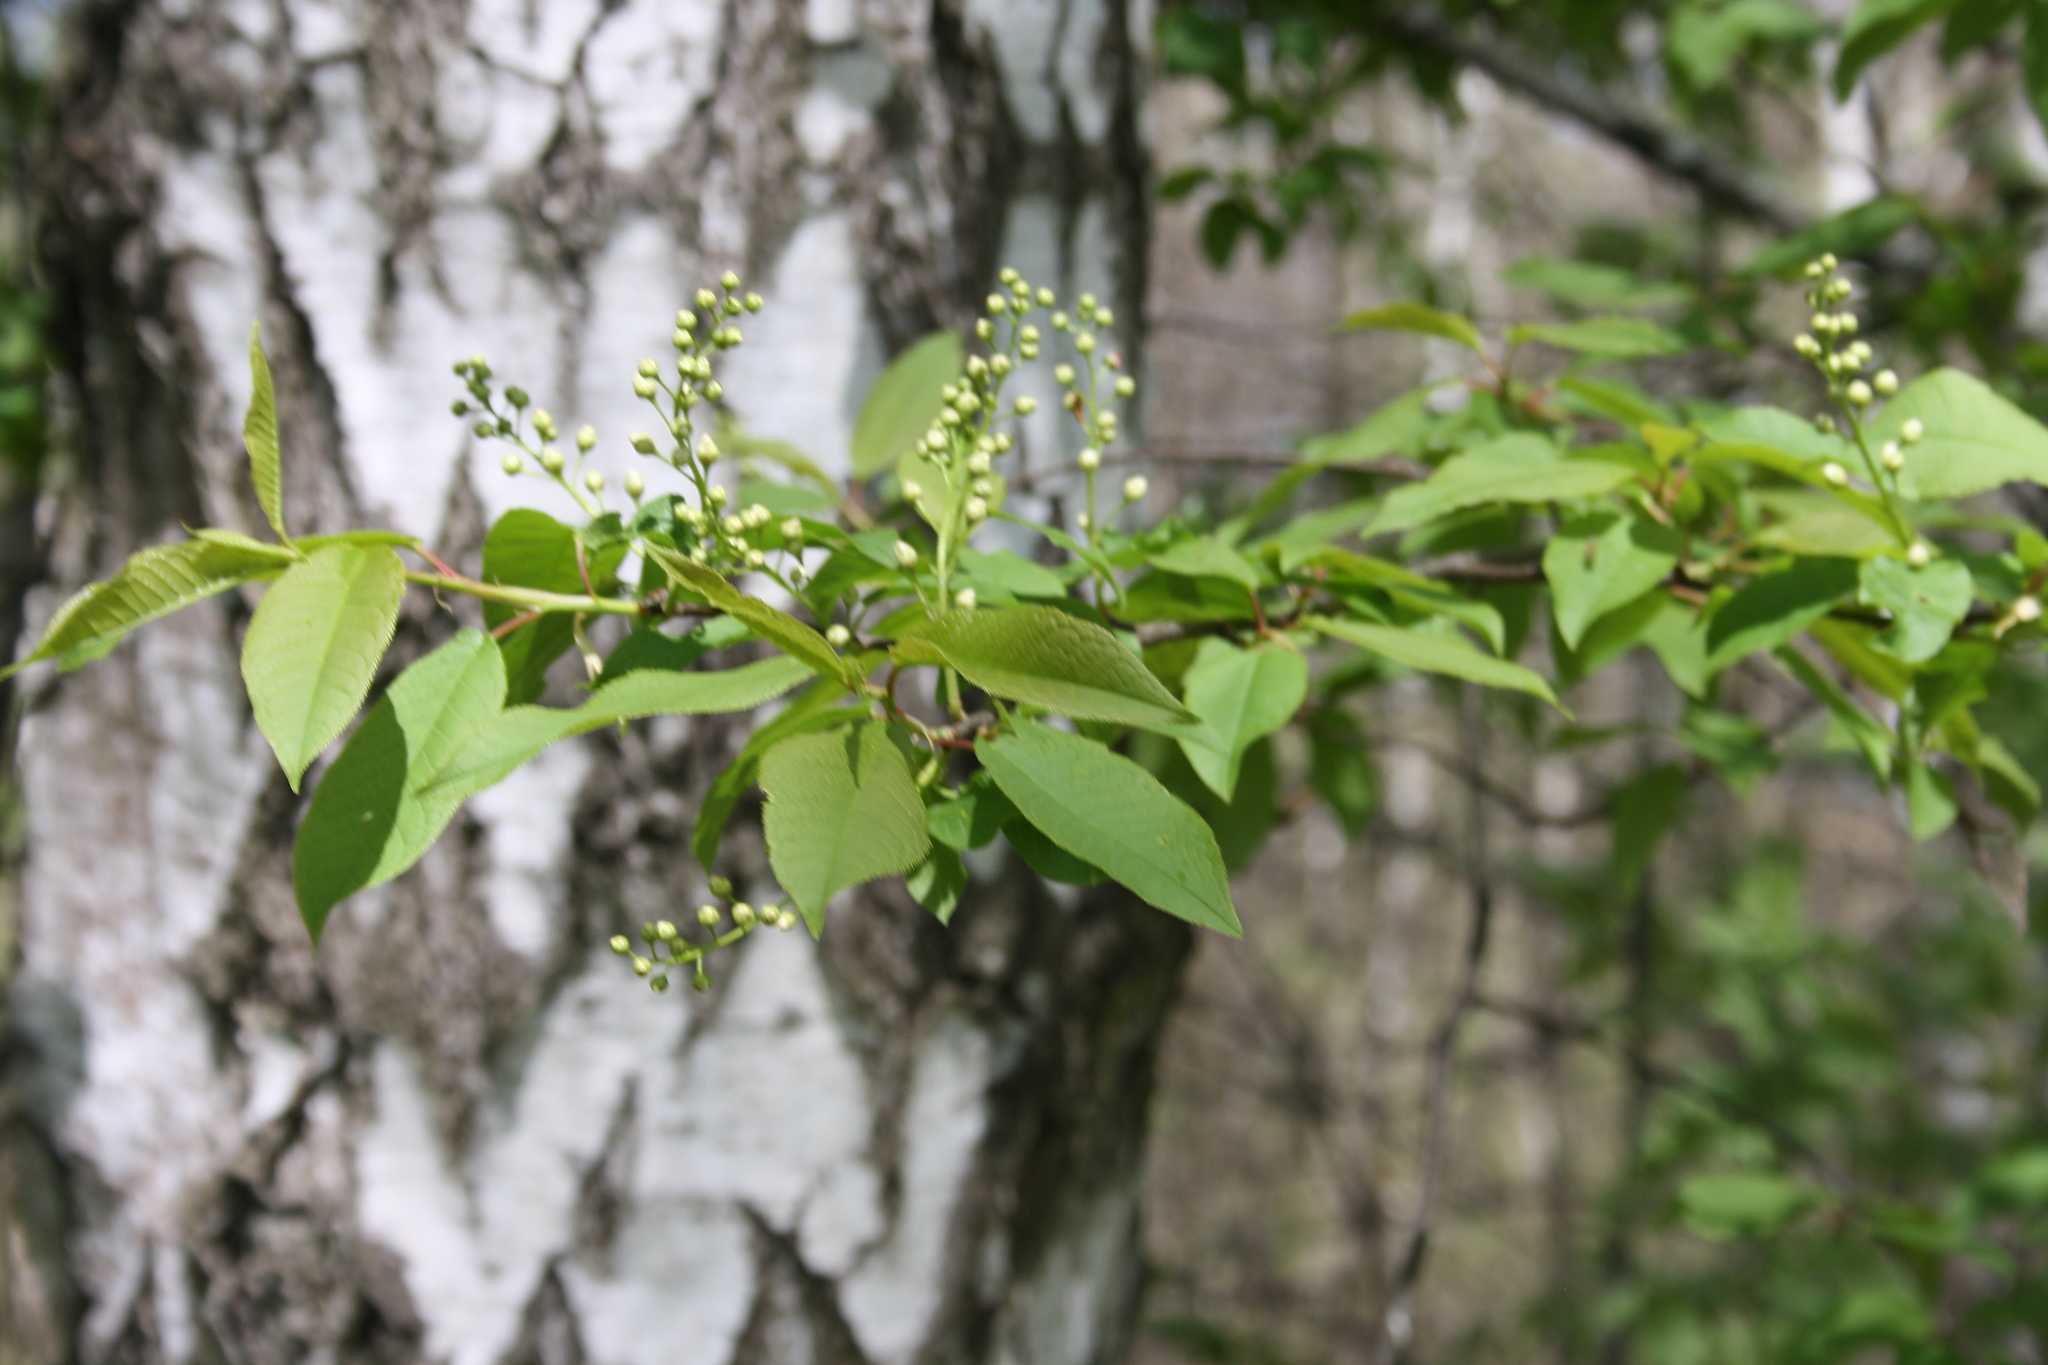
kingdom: Plantae
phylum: Tracheophyta
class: Magnoliopsida
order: Rosales
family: Rosaceae
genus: Prunus
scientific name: Prunus padus
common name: Bird cherry
